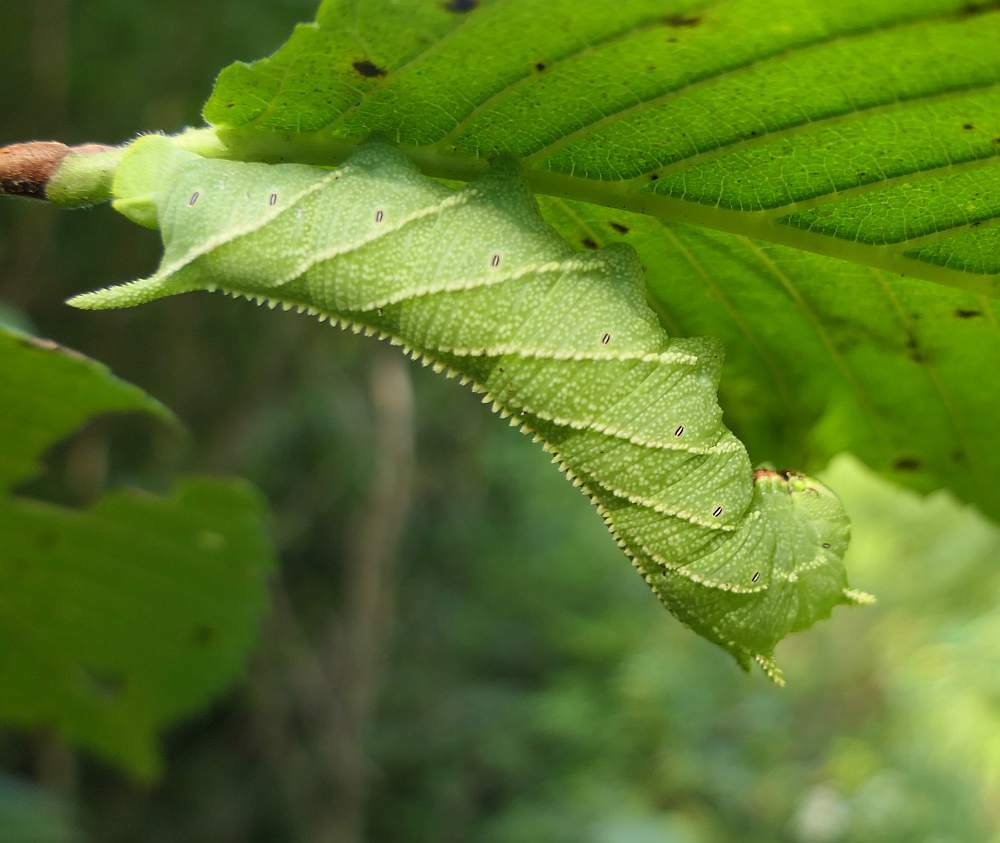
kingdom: Animalia
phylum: Arthropoda
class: Insecta
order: Lepidoptera
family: Sphingidae
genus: Ceratomia
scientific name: Ceratomia amyntor
